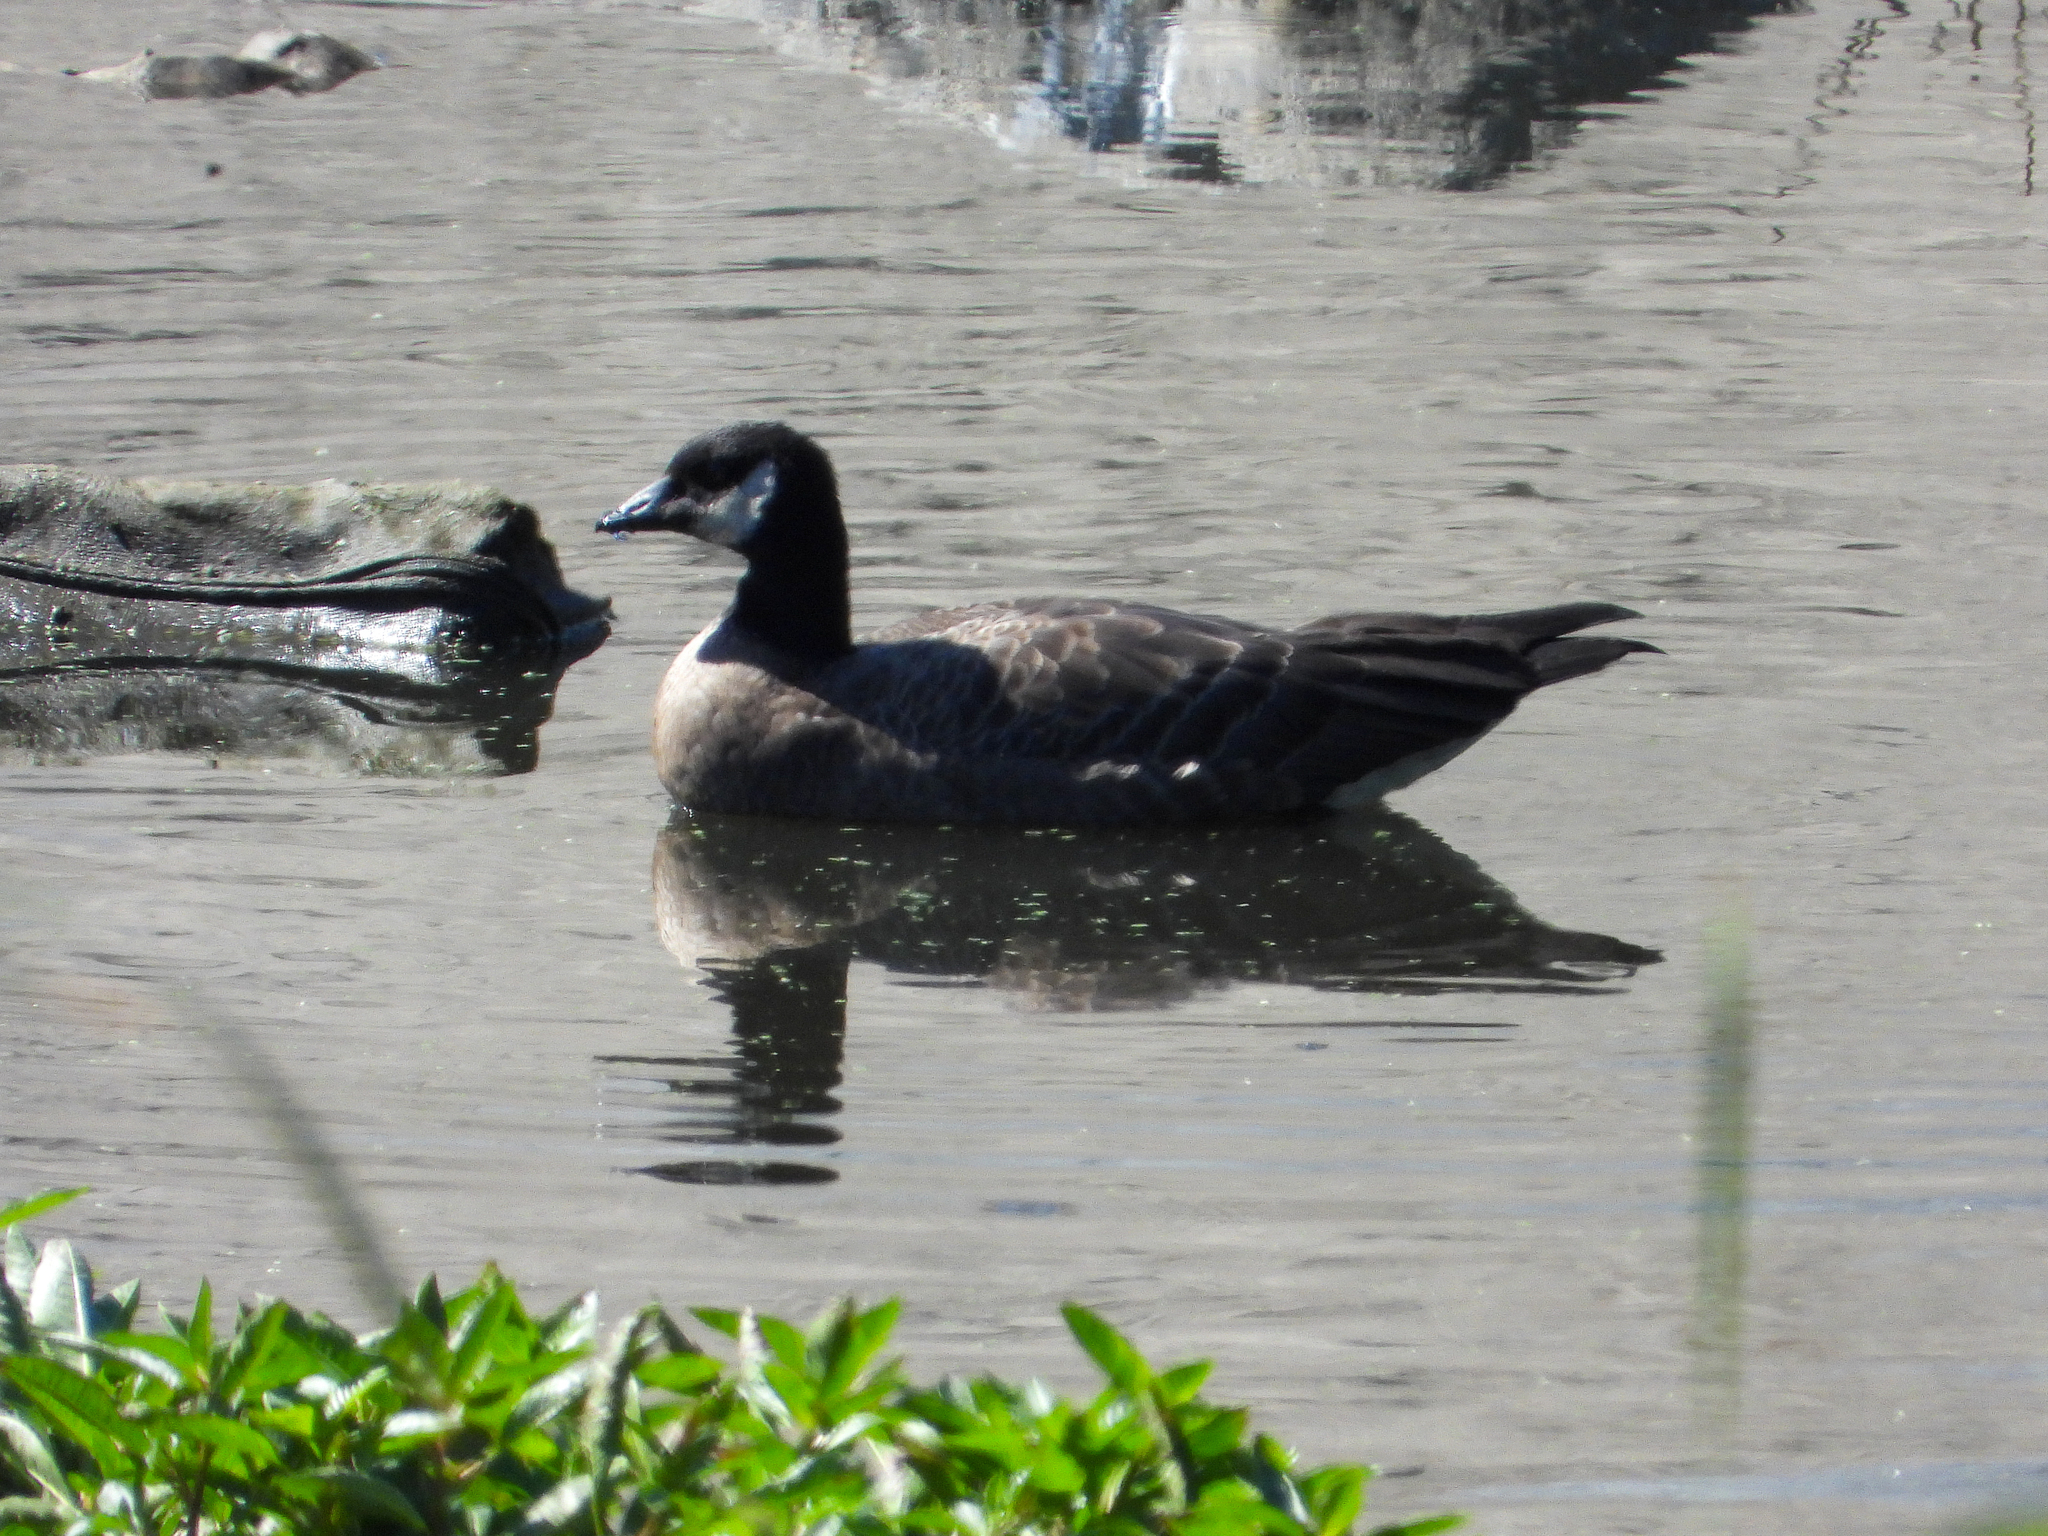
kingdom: Animalia
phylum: Chordata
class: Aves
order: Anseriformes
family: Anatidae
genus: Branta
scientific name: Branta hutchinsii
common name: Cackling goose
